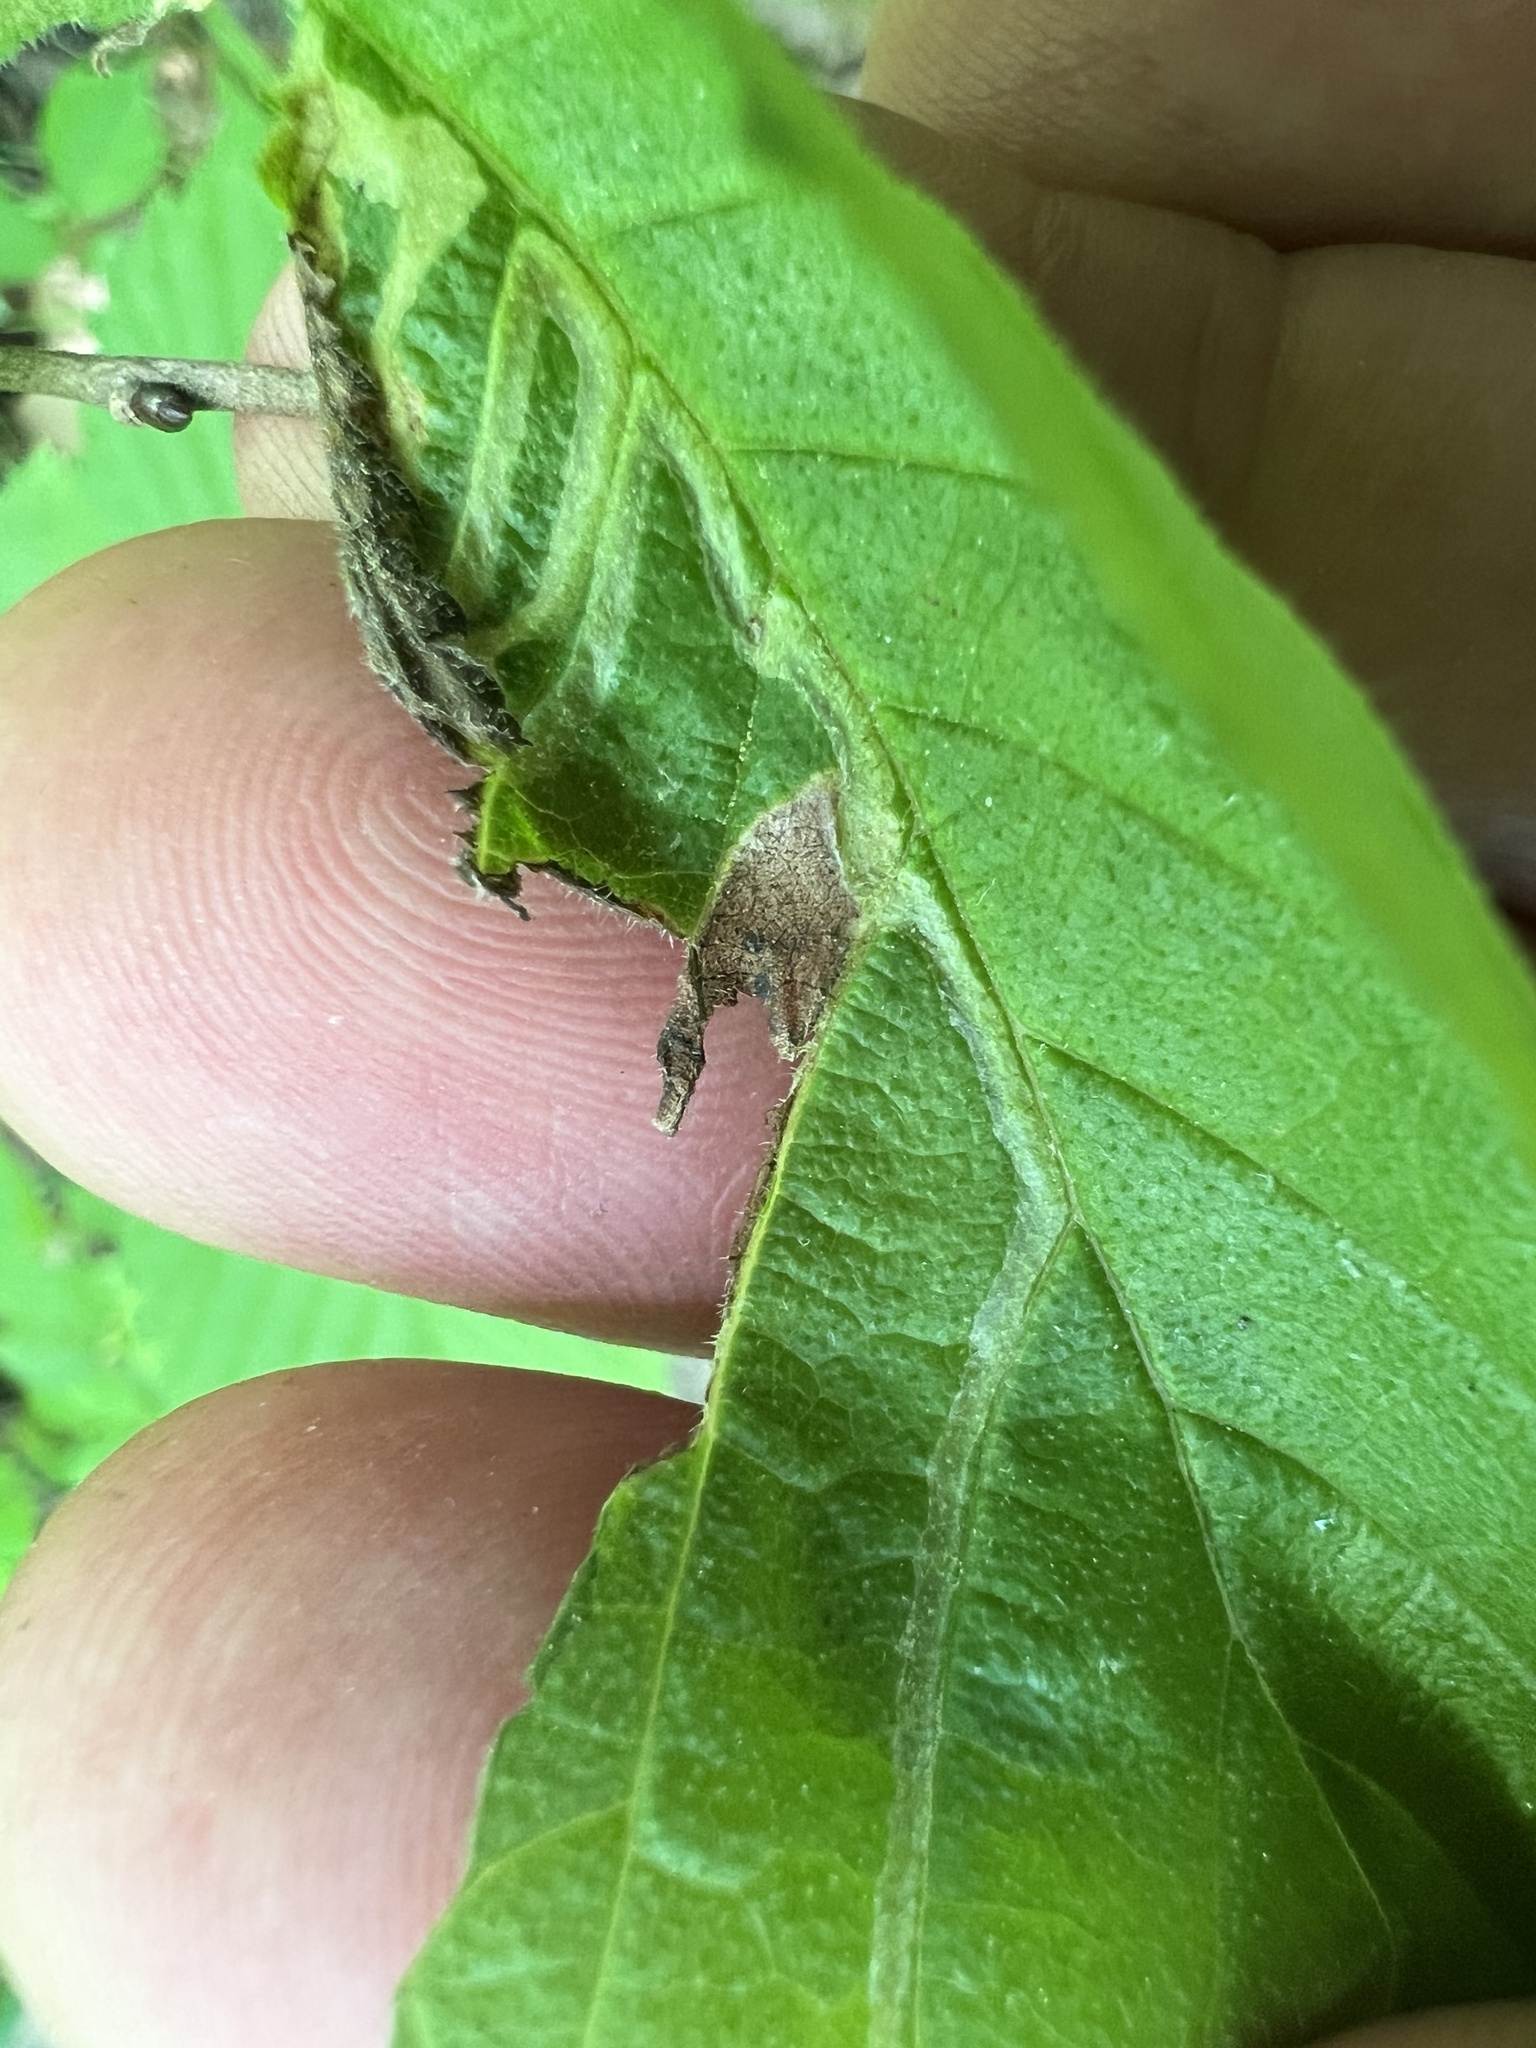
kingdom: Animalia
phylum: Arthropoda
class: Insecta
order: Diptera
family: Agromyzidae
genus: Agromyza
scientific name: Agromyza aristata
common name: Elm agromyzid leafminer
